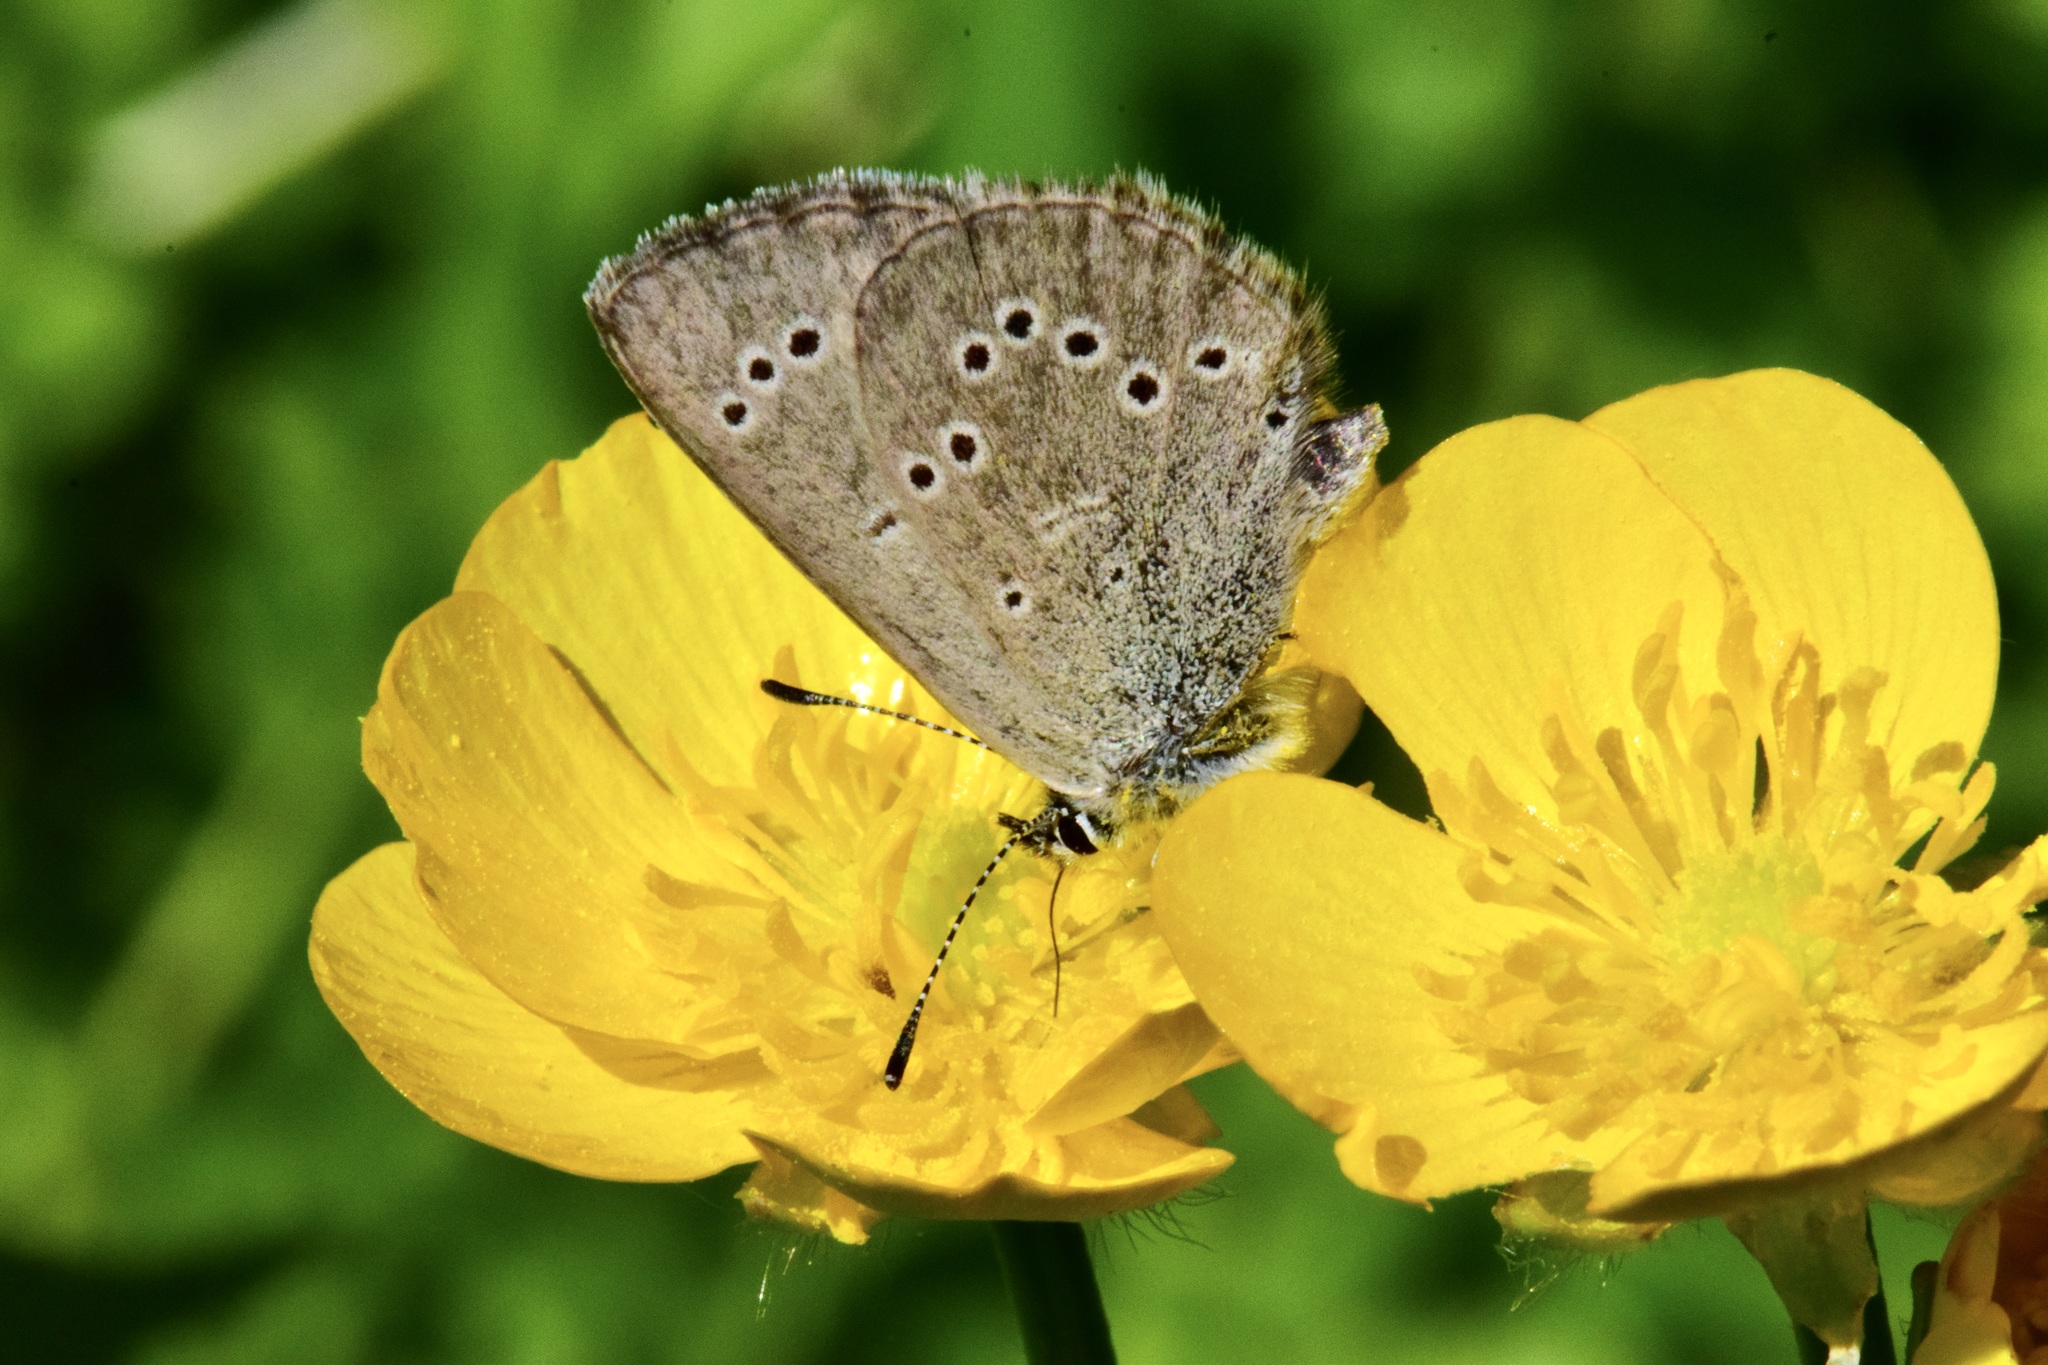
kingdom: Animalia
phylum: Arthropoda
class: Insecta
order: Lepidoptera
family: Lycaenidae
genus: Glaucopsyche
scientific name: Glaucopsyche lygdamus
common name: Silvery blue
